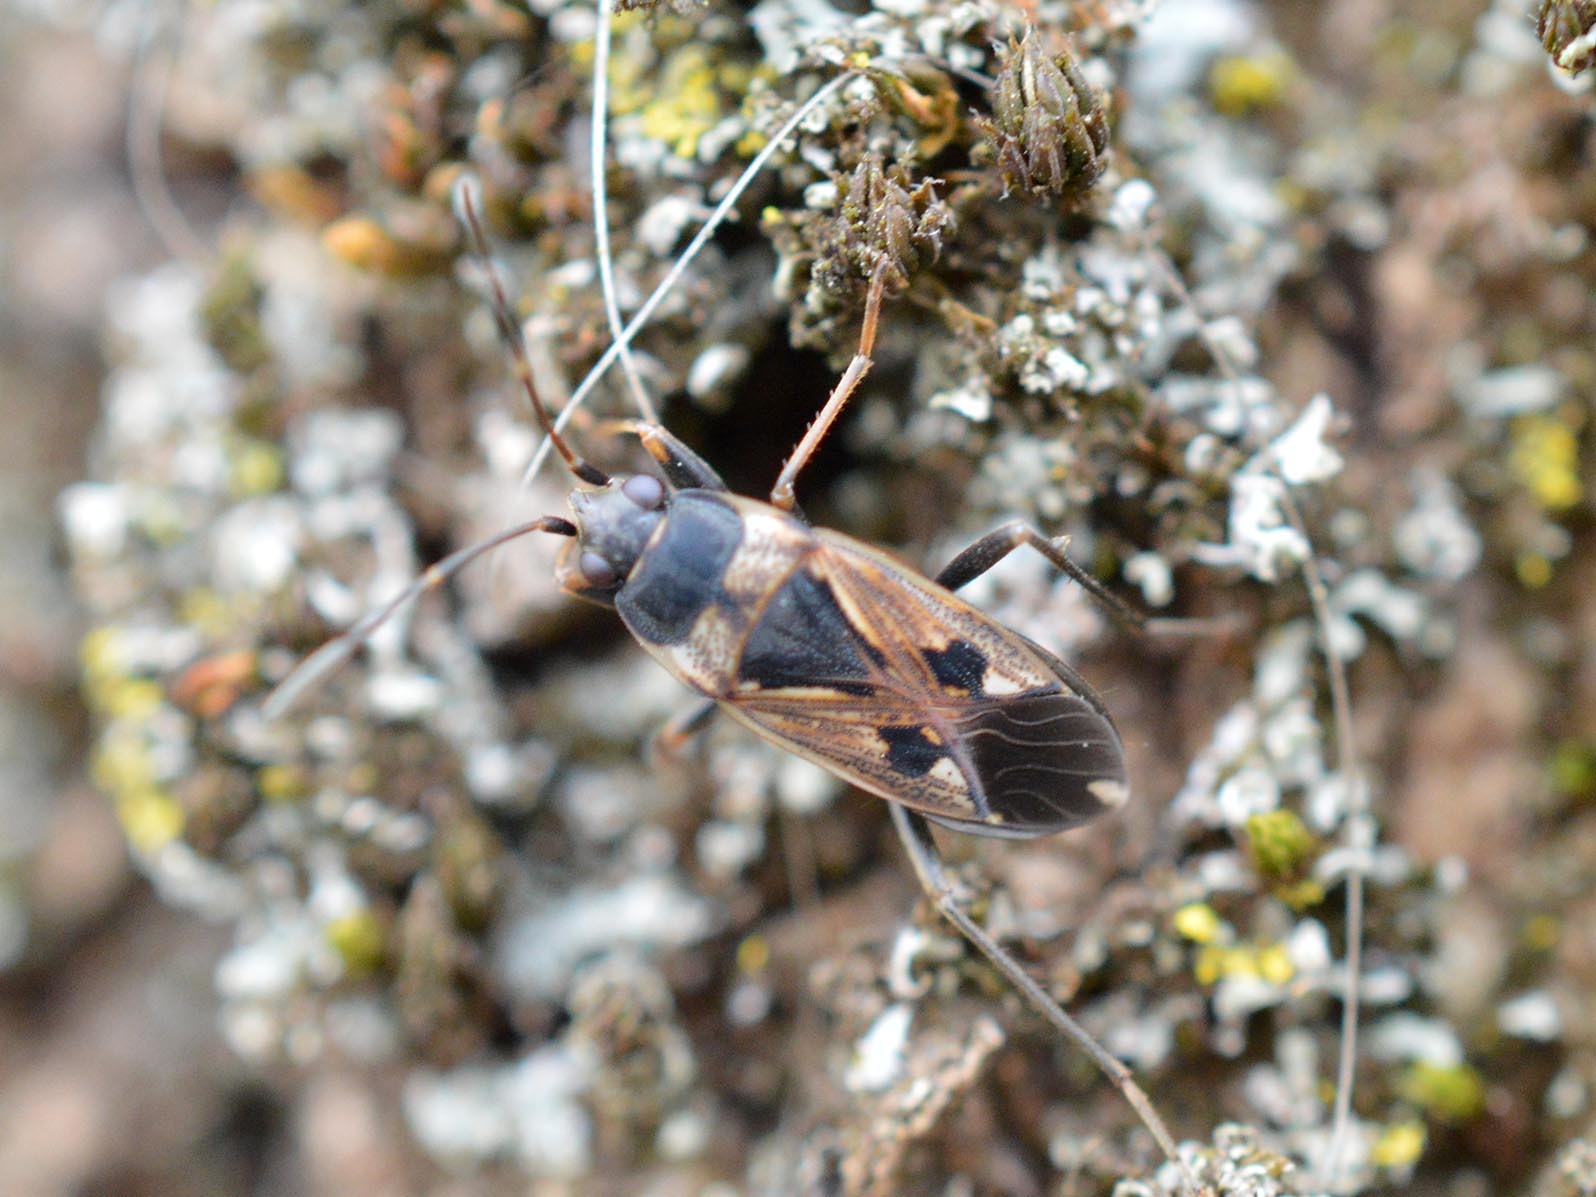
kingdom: Animalia
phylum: Arthropoda
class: Insecta
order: Hemiptera
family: Rhyparochromidae
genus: Rhyparochromus
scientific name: Rhyparochromus vulgaris
